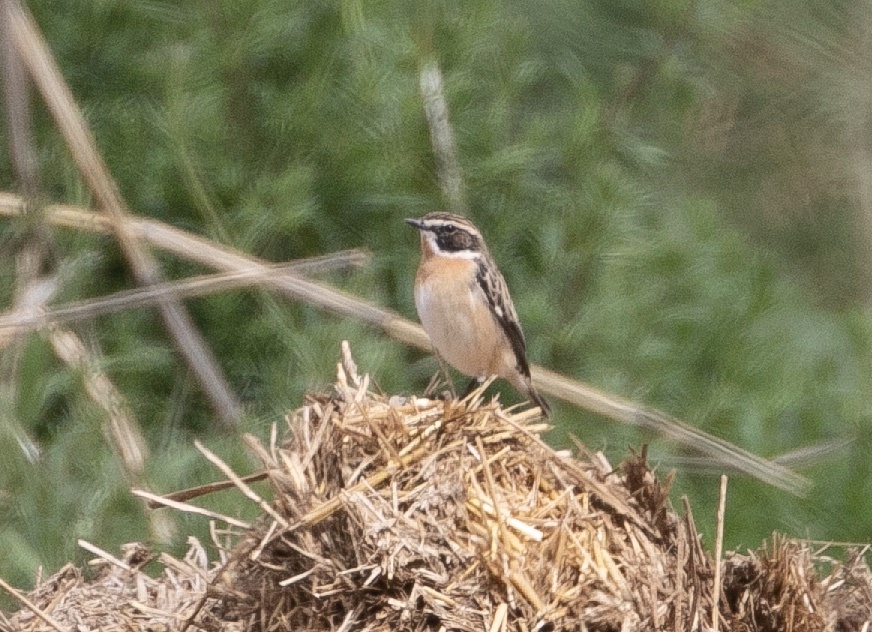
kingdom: Animalia
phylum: Chordata
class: Aves
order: Passeriformes
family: Muscicapidae
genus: Saxicola
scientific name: Saxicola rubetra
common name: Whinchat
